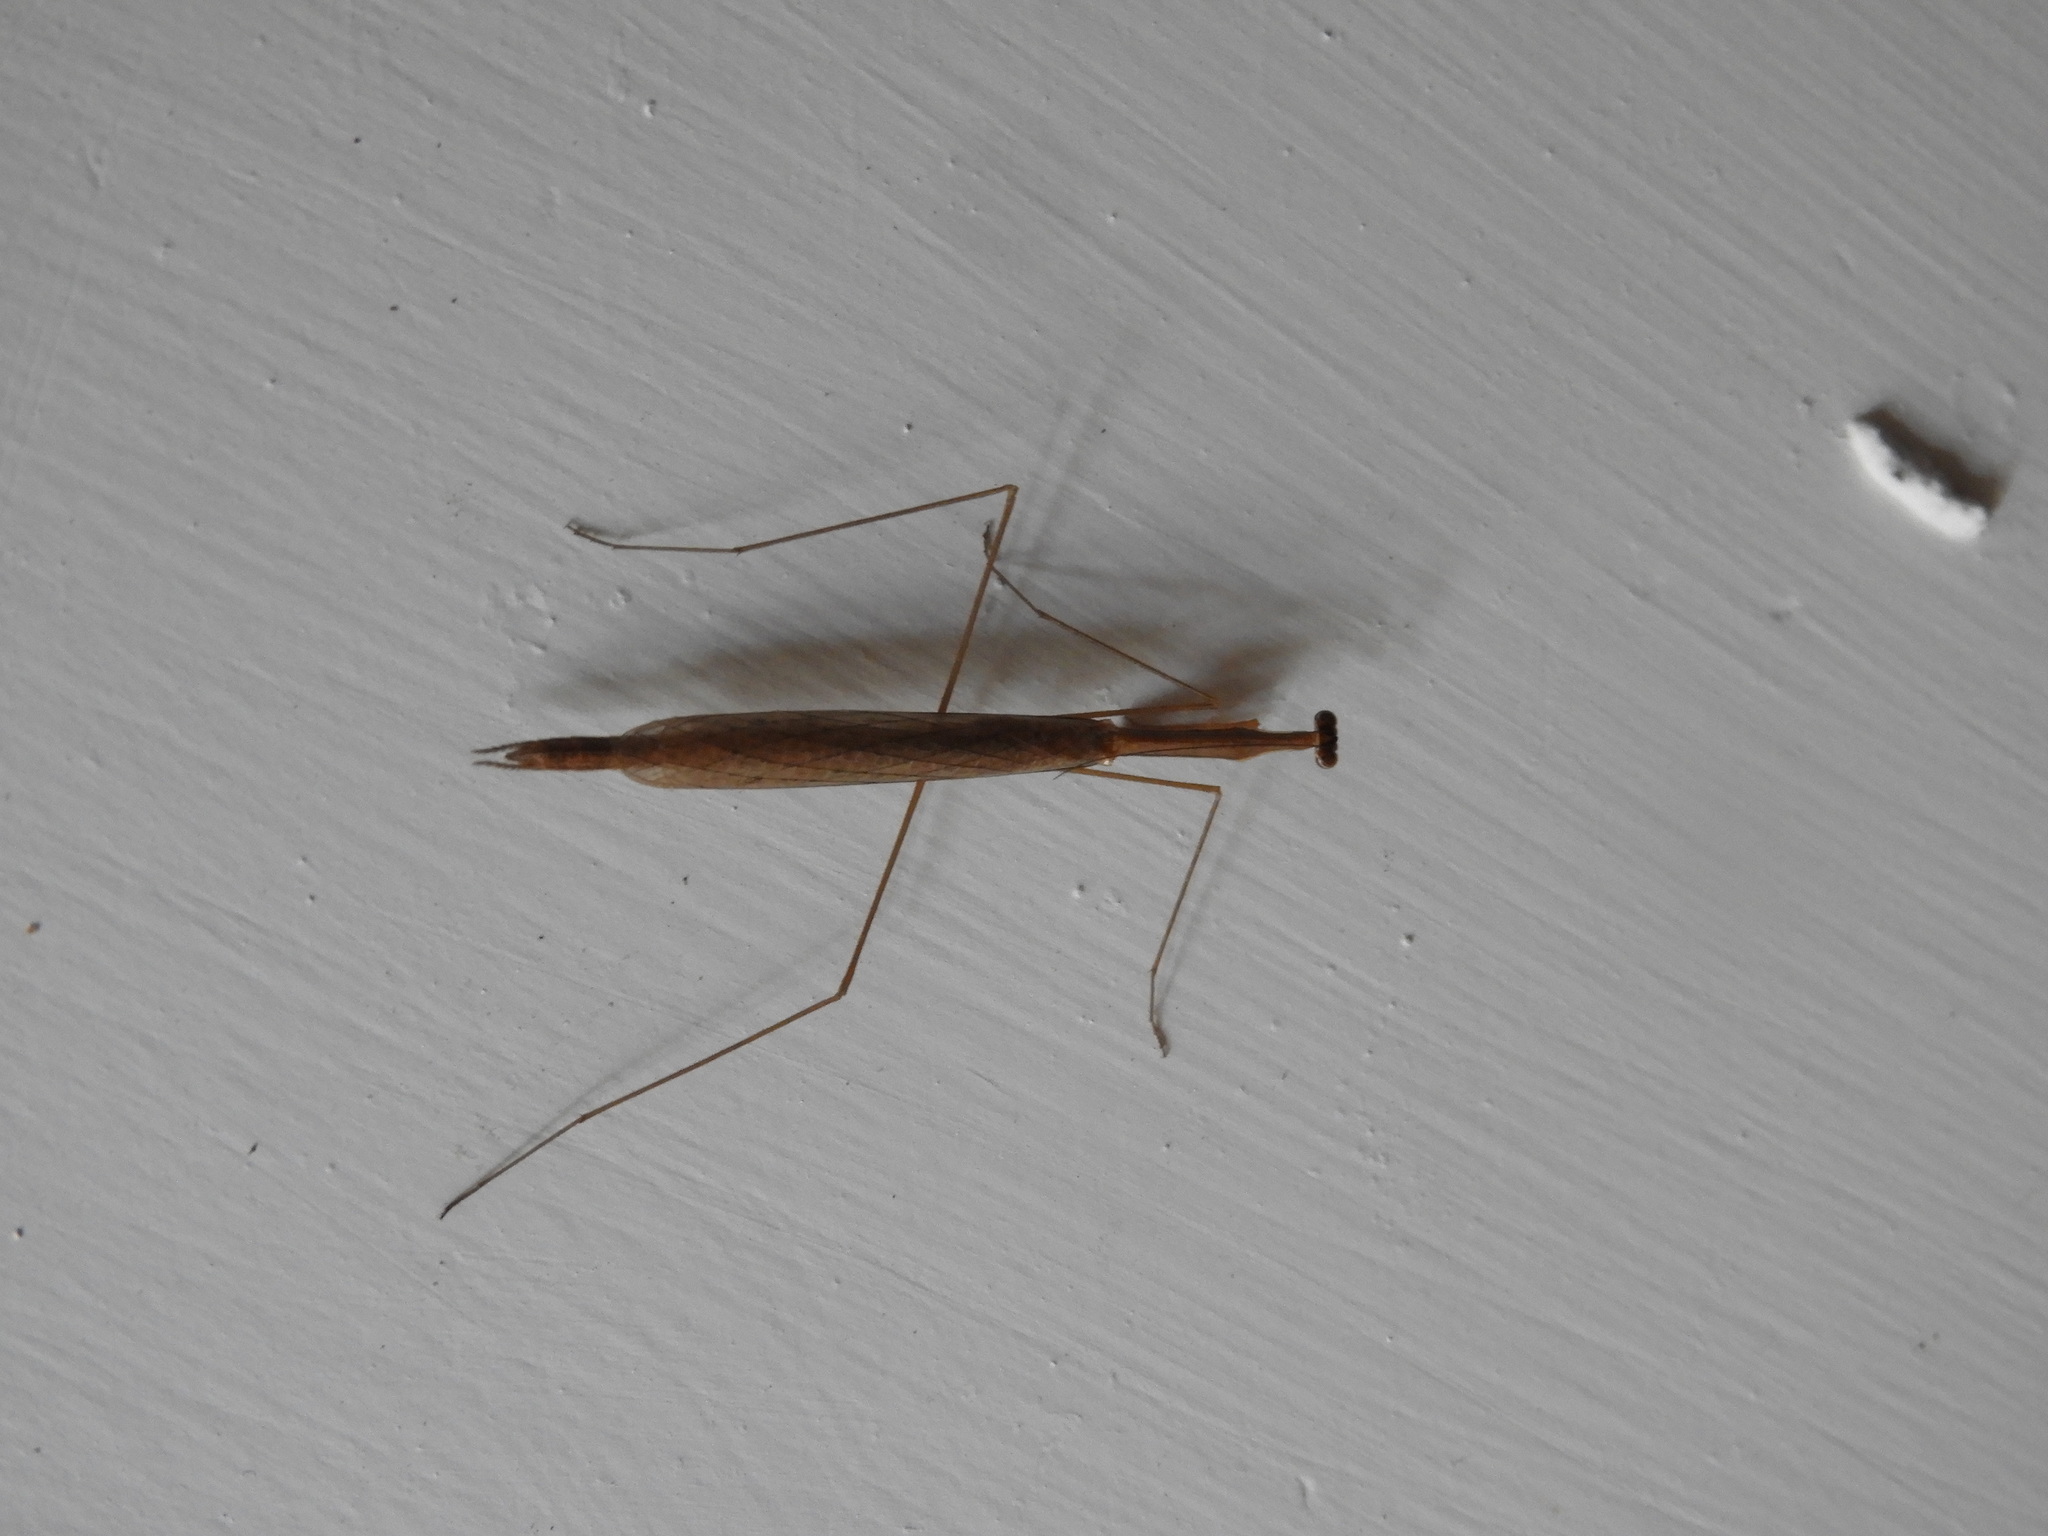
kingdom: Animalia
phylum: Arthropoda
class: Insecta
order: Mantodea
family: Thespidae
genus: Bistanta
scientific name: Bistanta mexicana
